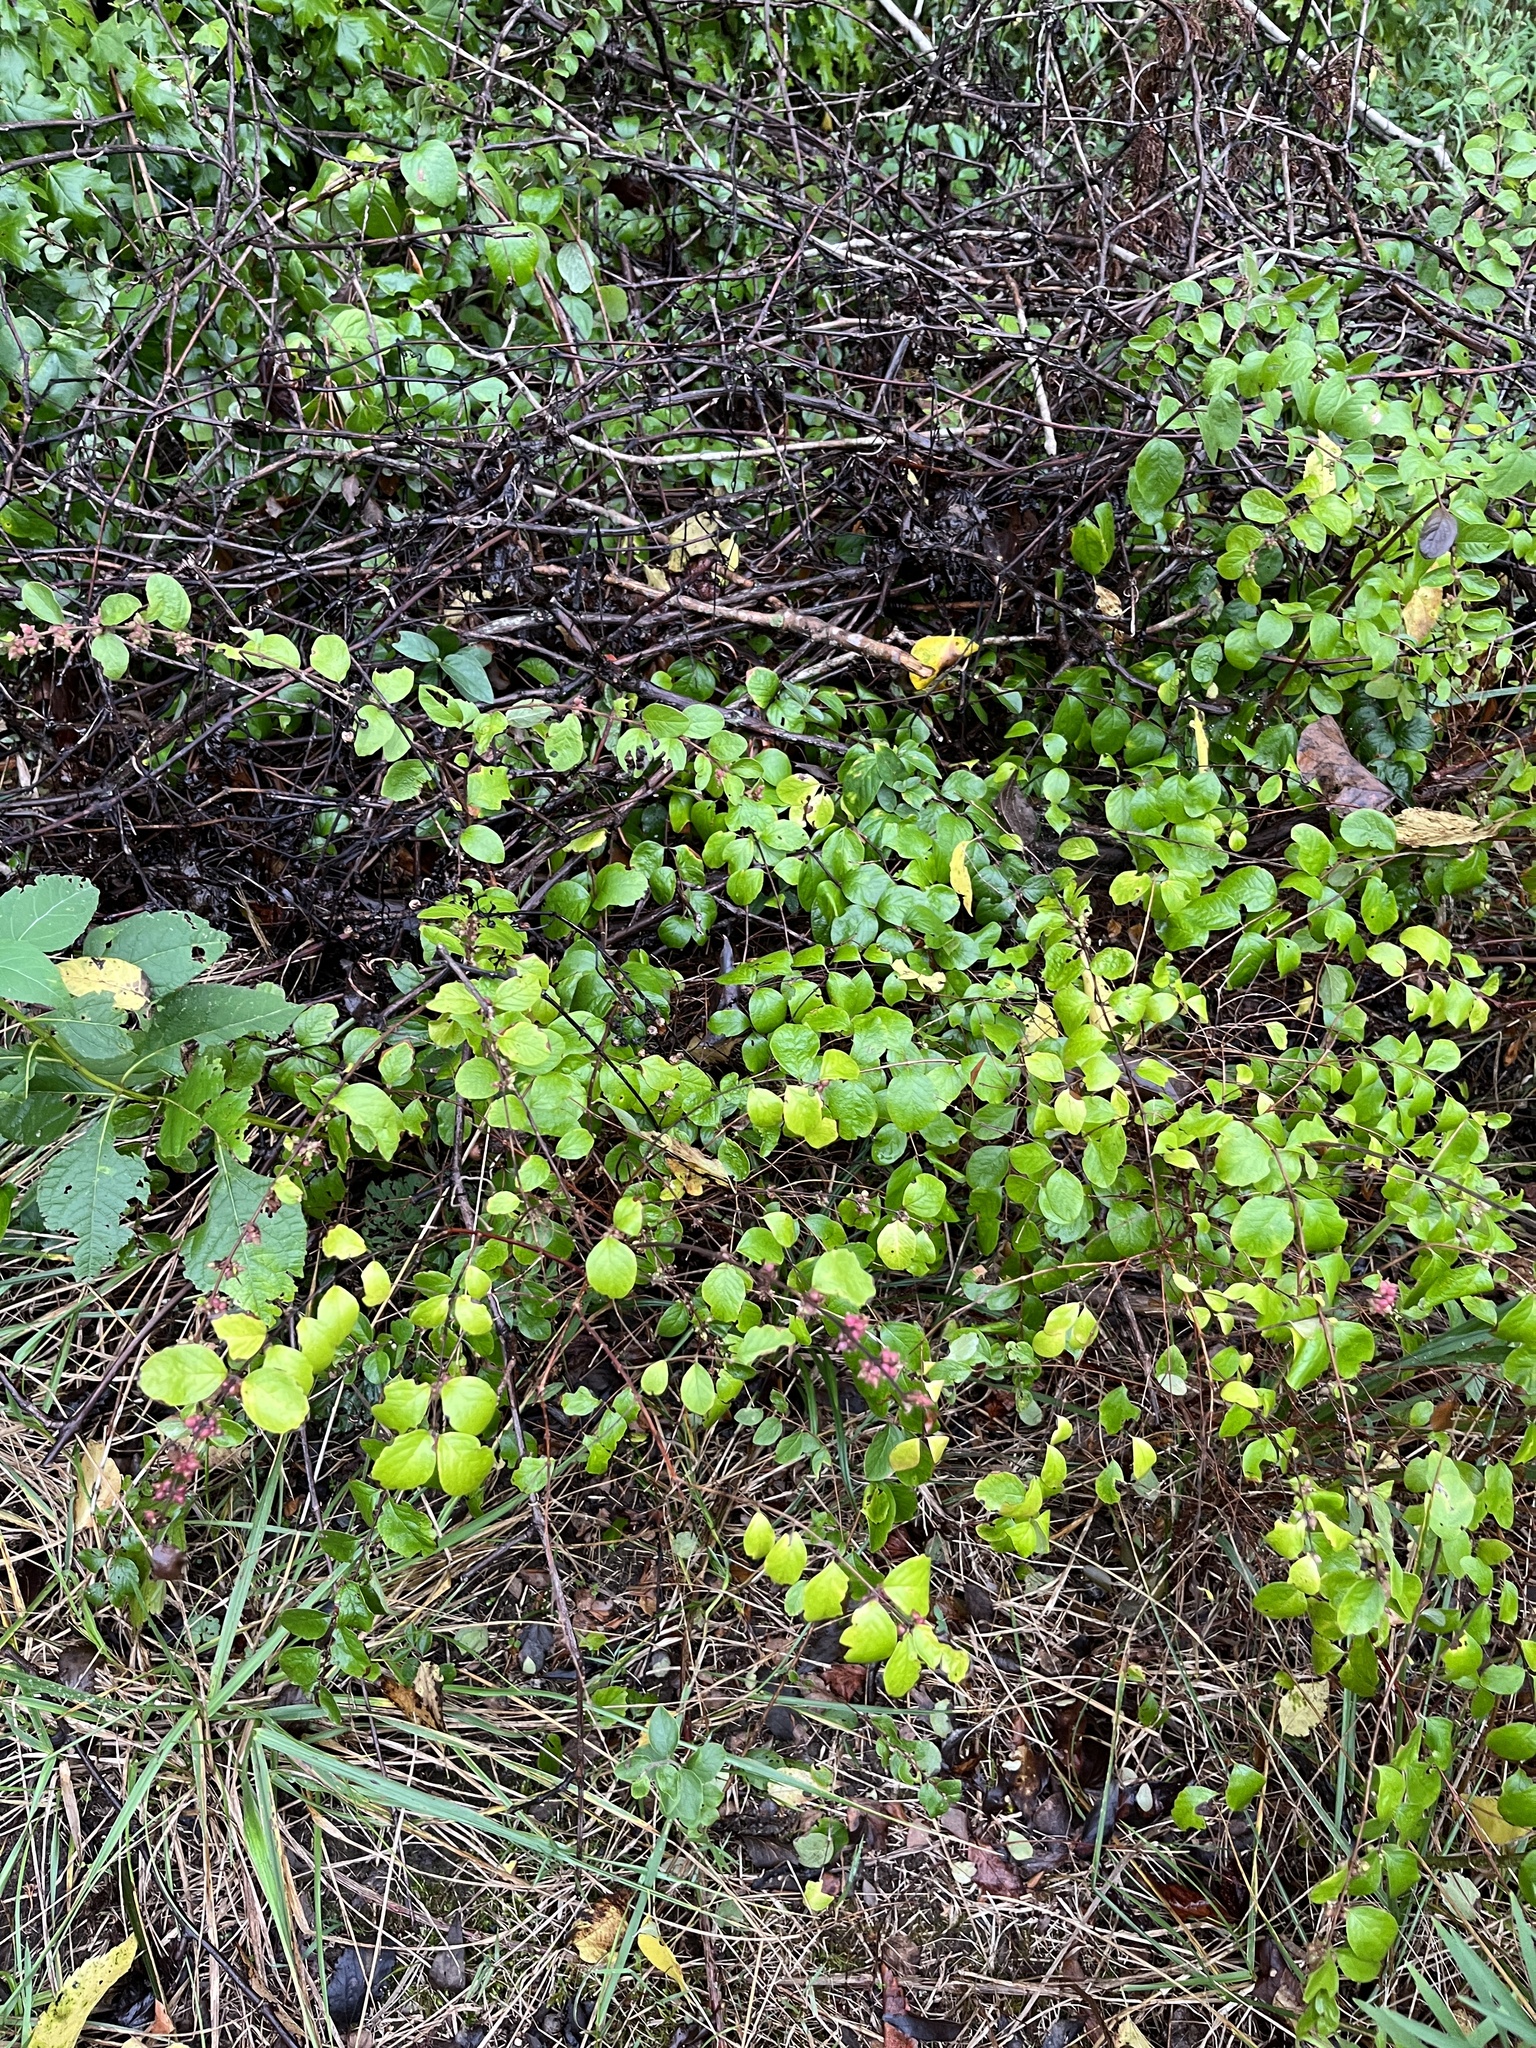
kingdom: Plantae
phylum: Tracheophyta
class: Magnoliopsida
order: Dipsacales
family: Caprifoliaceae
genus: Symphoricarpos
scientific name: Symphoricarpos orbiculatus
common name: Coralberry
